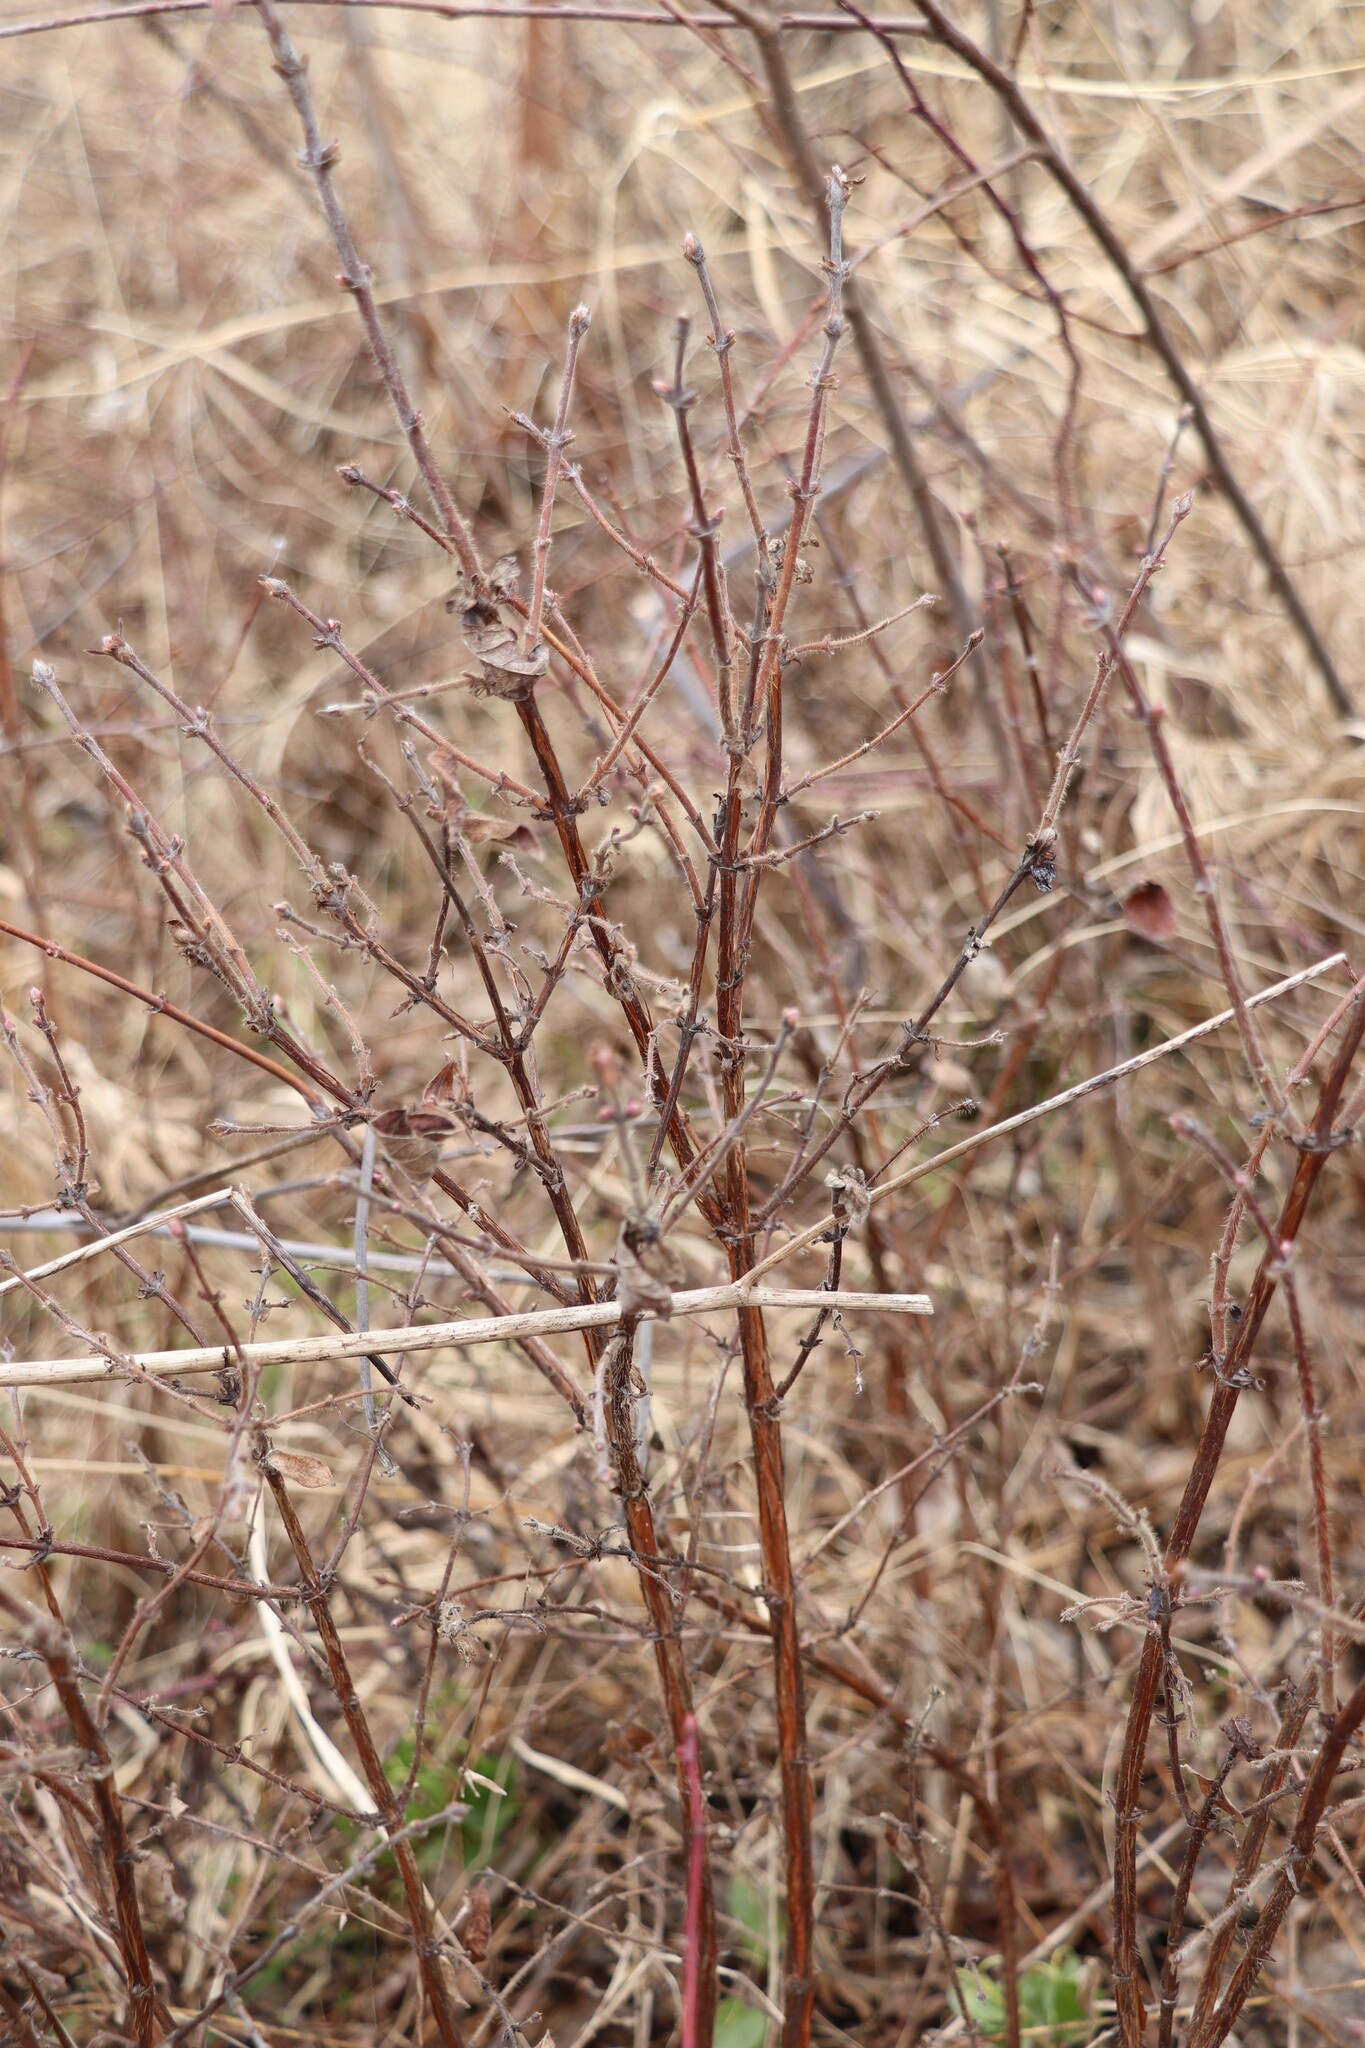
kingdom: Plantae
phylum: Tracheophyta
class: Magnoliopsida
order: Dipsacales
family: Caprifoliaceae
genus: Lonicera
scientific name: Lonicera caerulea
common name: Blue honeysuckle
